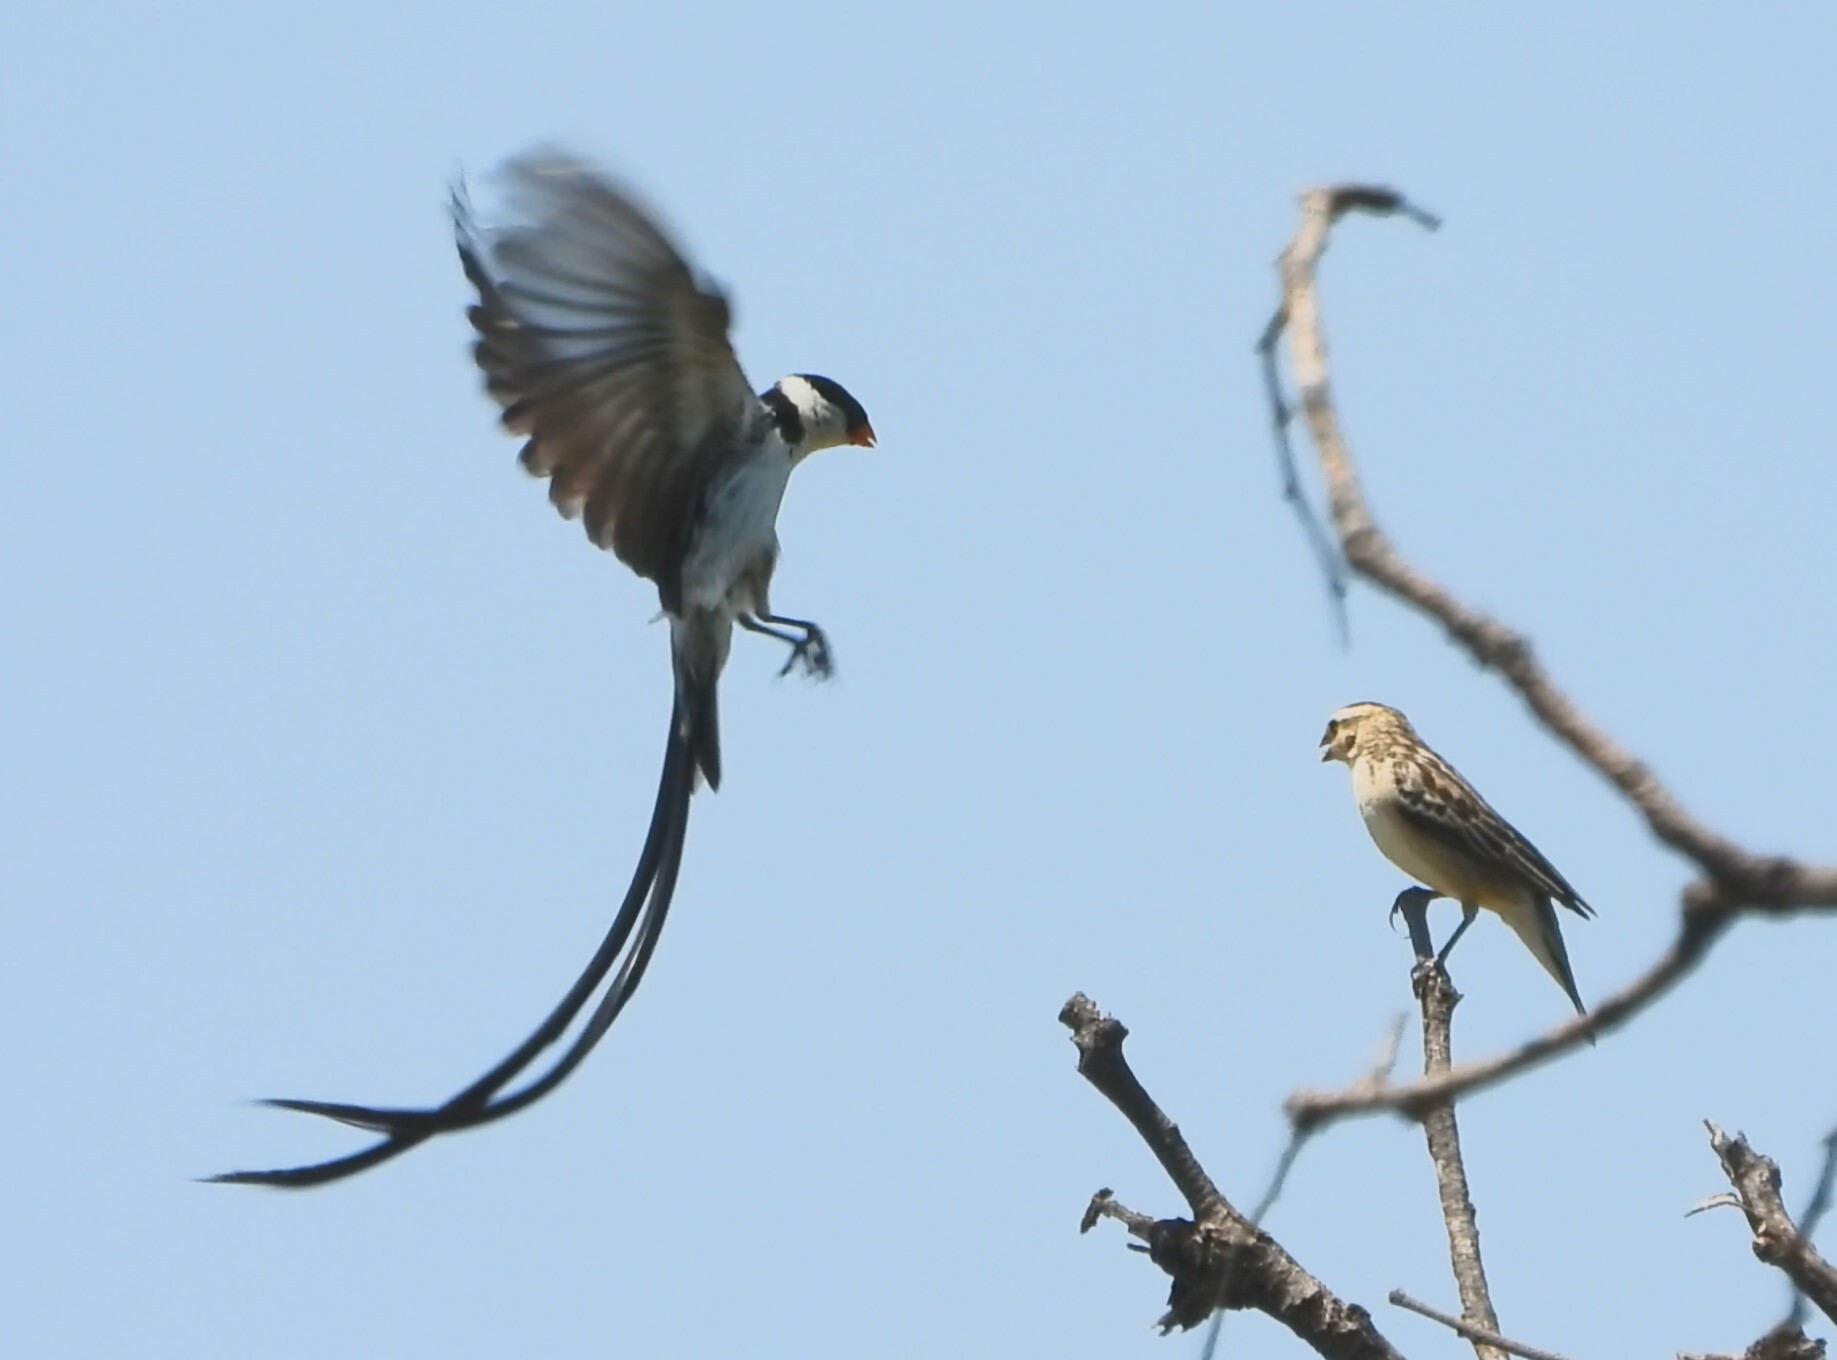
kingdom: Animalia
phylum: Chordata
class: Aves
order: Passeriformes
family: Viduidae
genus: Vidua
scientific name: Vidua macroura
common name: Pin-tailed whydah
